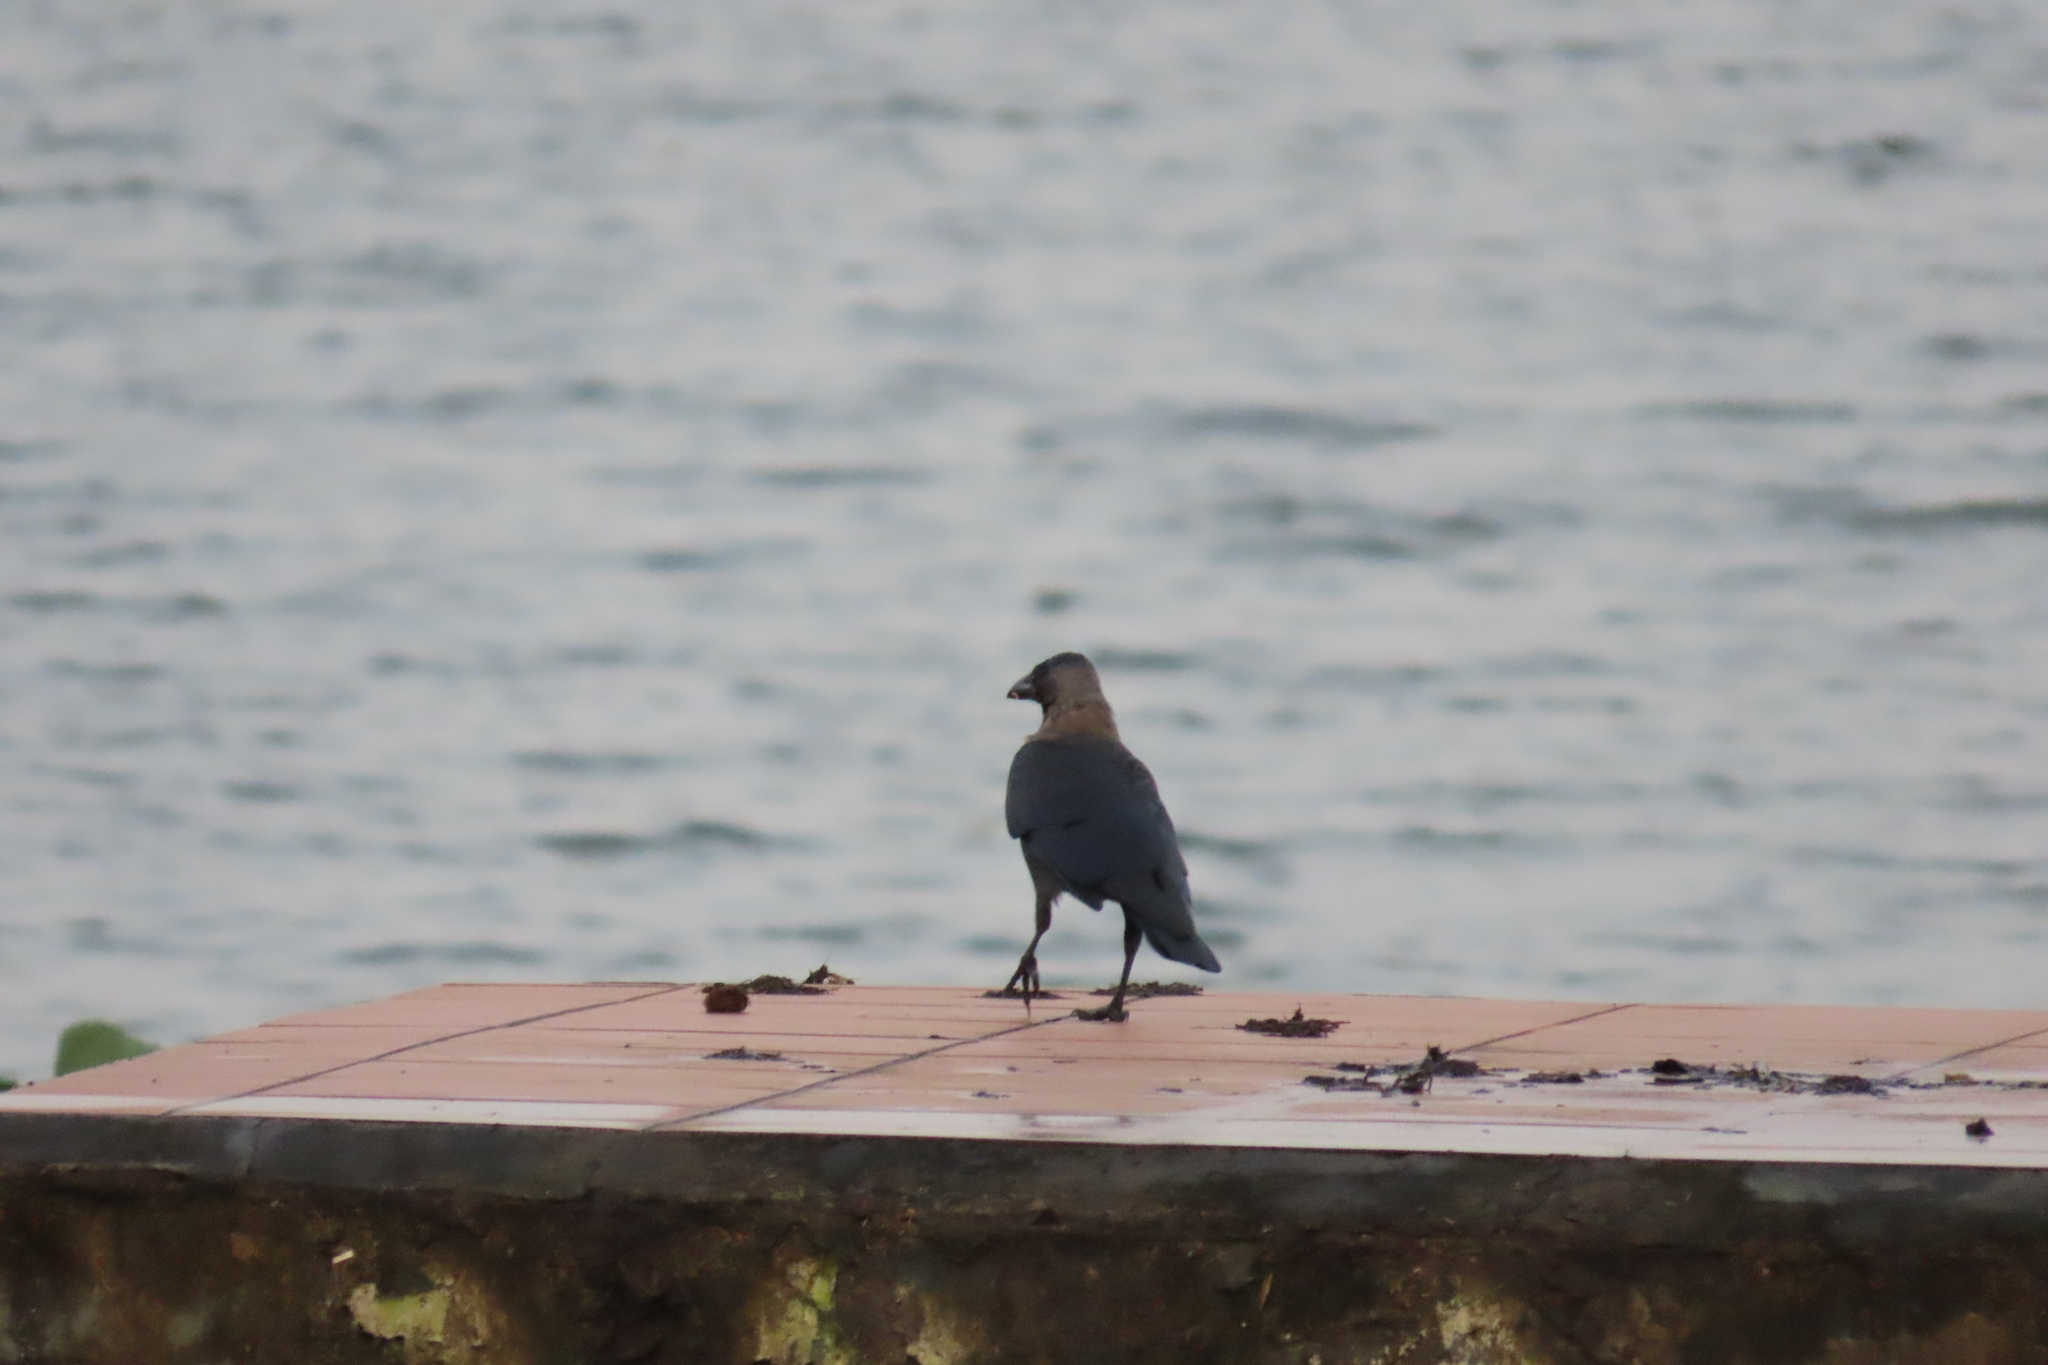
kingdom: Animalia
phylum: Chordata
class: Aves
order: Passeriformes
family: Corvidae
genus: Corvus
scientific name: Corvus splendens
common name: House crow
